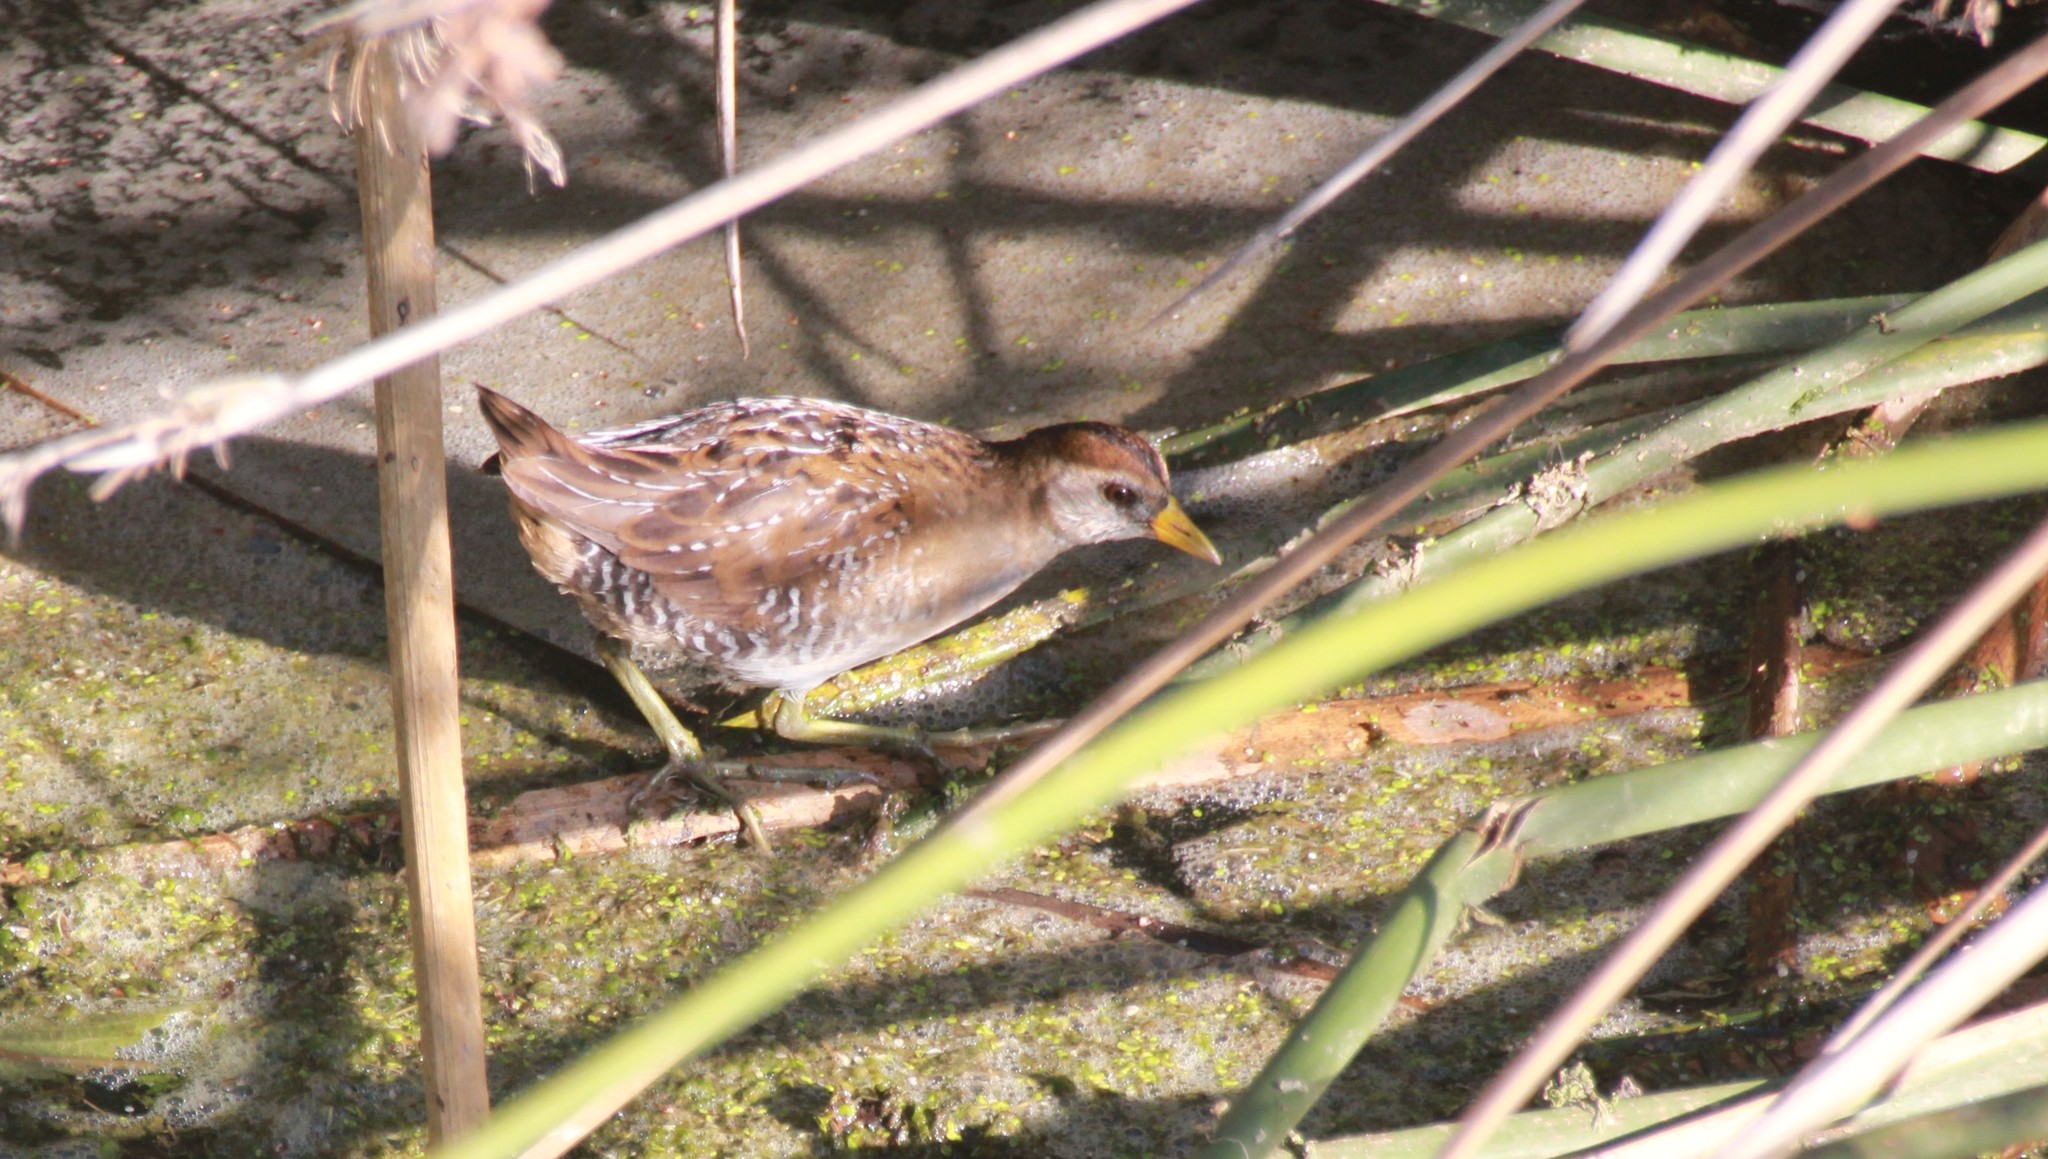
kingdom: Animalia
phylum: Chordata
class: Aves
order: Gruiformes
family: Rallidae
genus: Porzana
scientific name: Porzana carolina
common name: Sora
